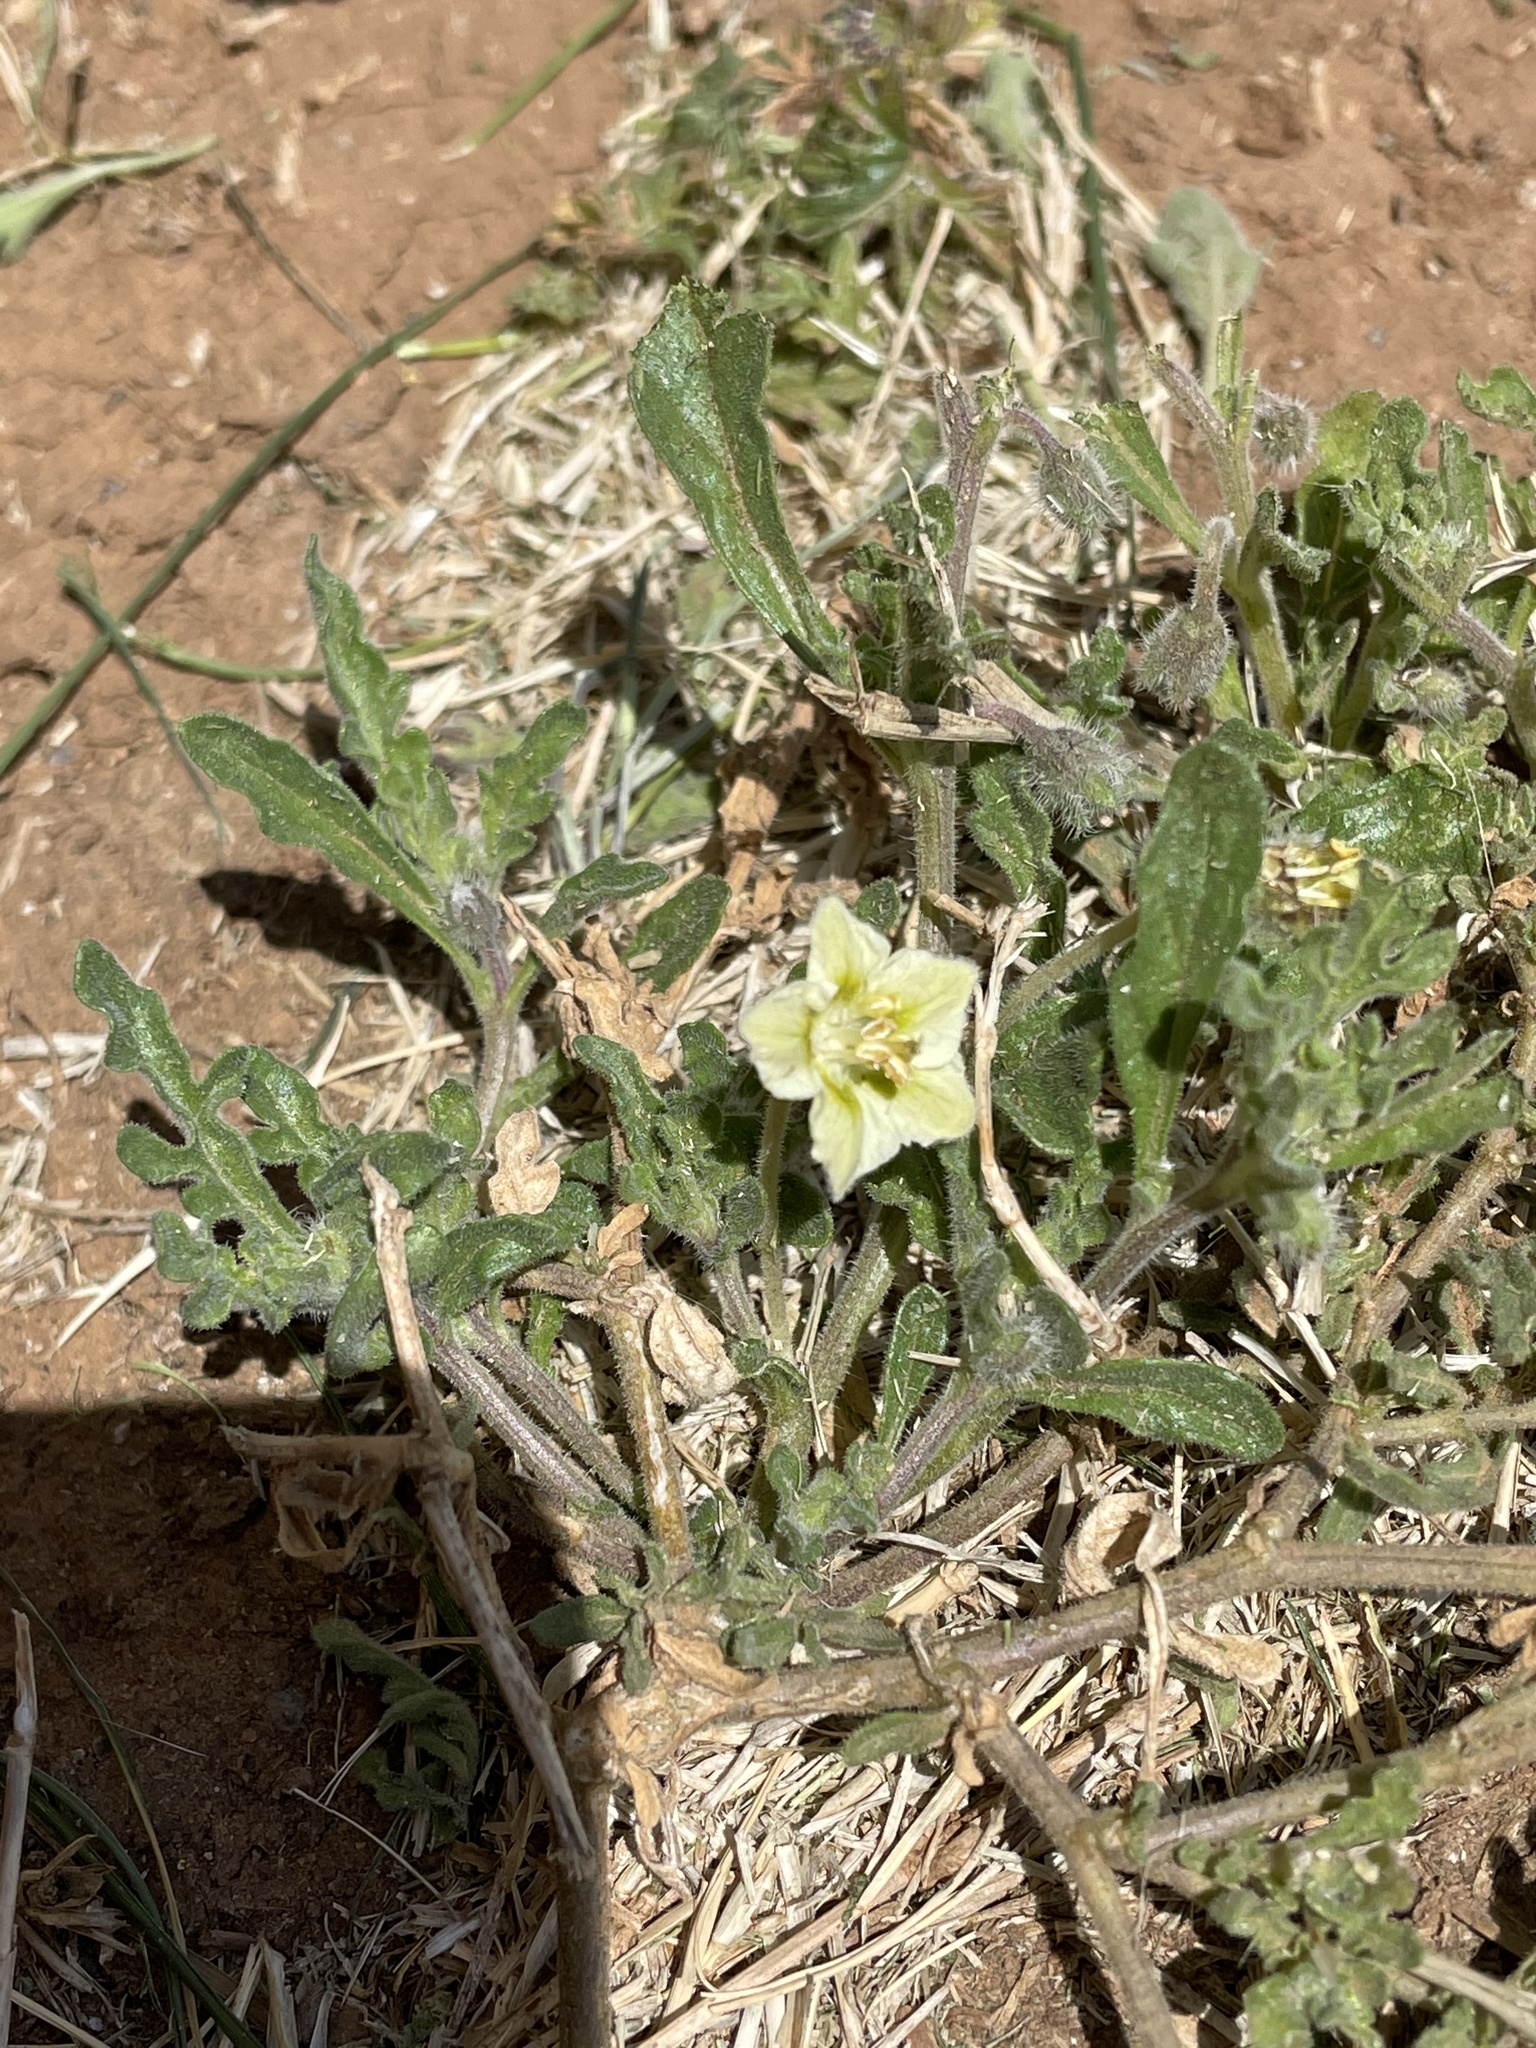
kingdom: Plantae
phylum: Tracheophyta
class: Magnoliopsida
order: Solanales
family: Solanaceae
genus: Chamaesaracha
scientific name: Chamaesaracha coniodes
